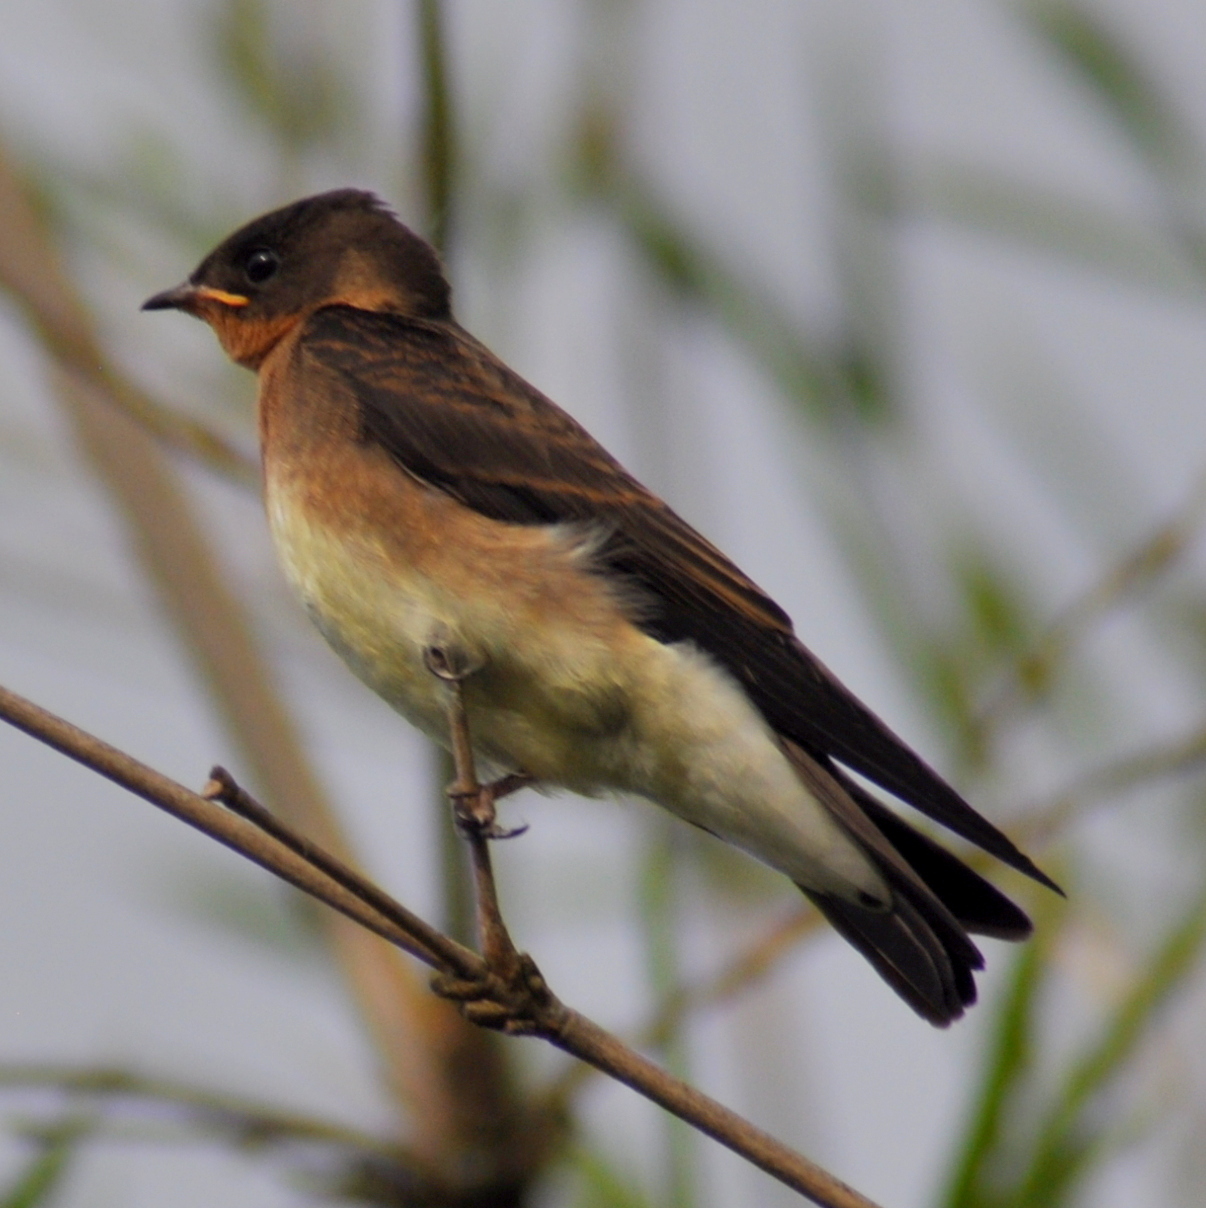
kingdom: Animalia
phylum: Chordata
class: Aves
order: Passeriformes
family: Hirundinidae
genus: Stelgidopteryx
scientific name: Stelgidopteryx ruficollis
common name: Southern rough-winged swallow
